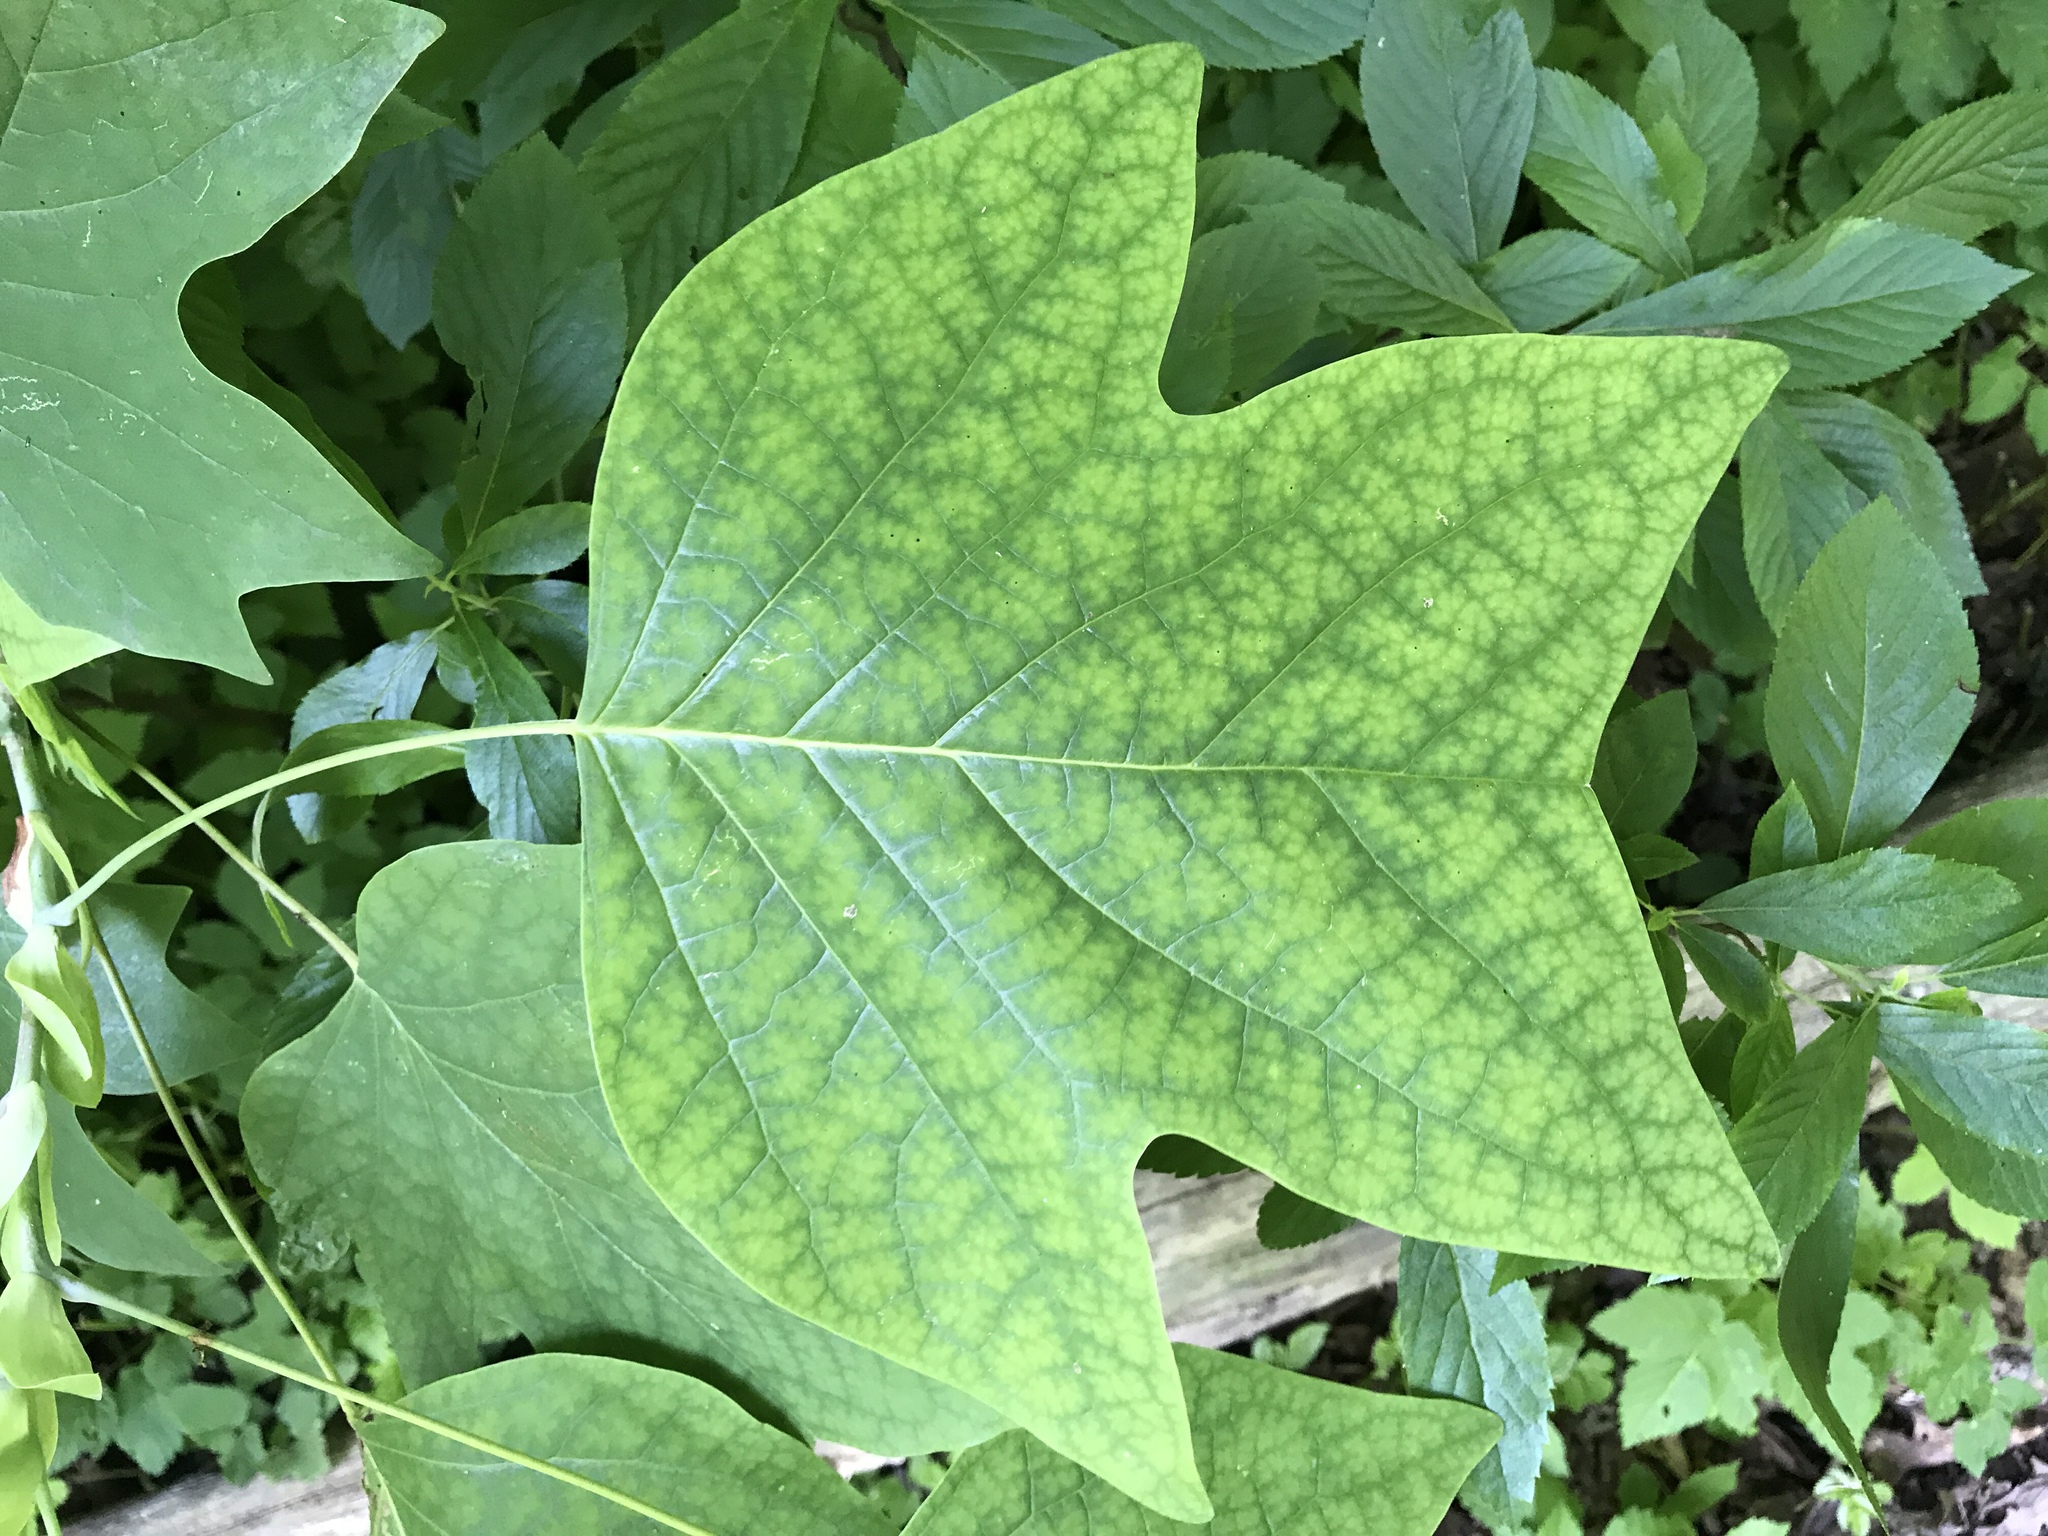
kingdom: Plantae
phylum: Tracheophyta
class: Magnoliopsida
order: Magnoliales
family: Magnoliaceae
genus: Liriodendron
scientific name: Liriodendron tulipifera
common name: Tulip tree
